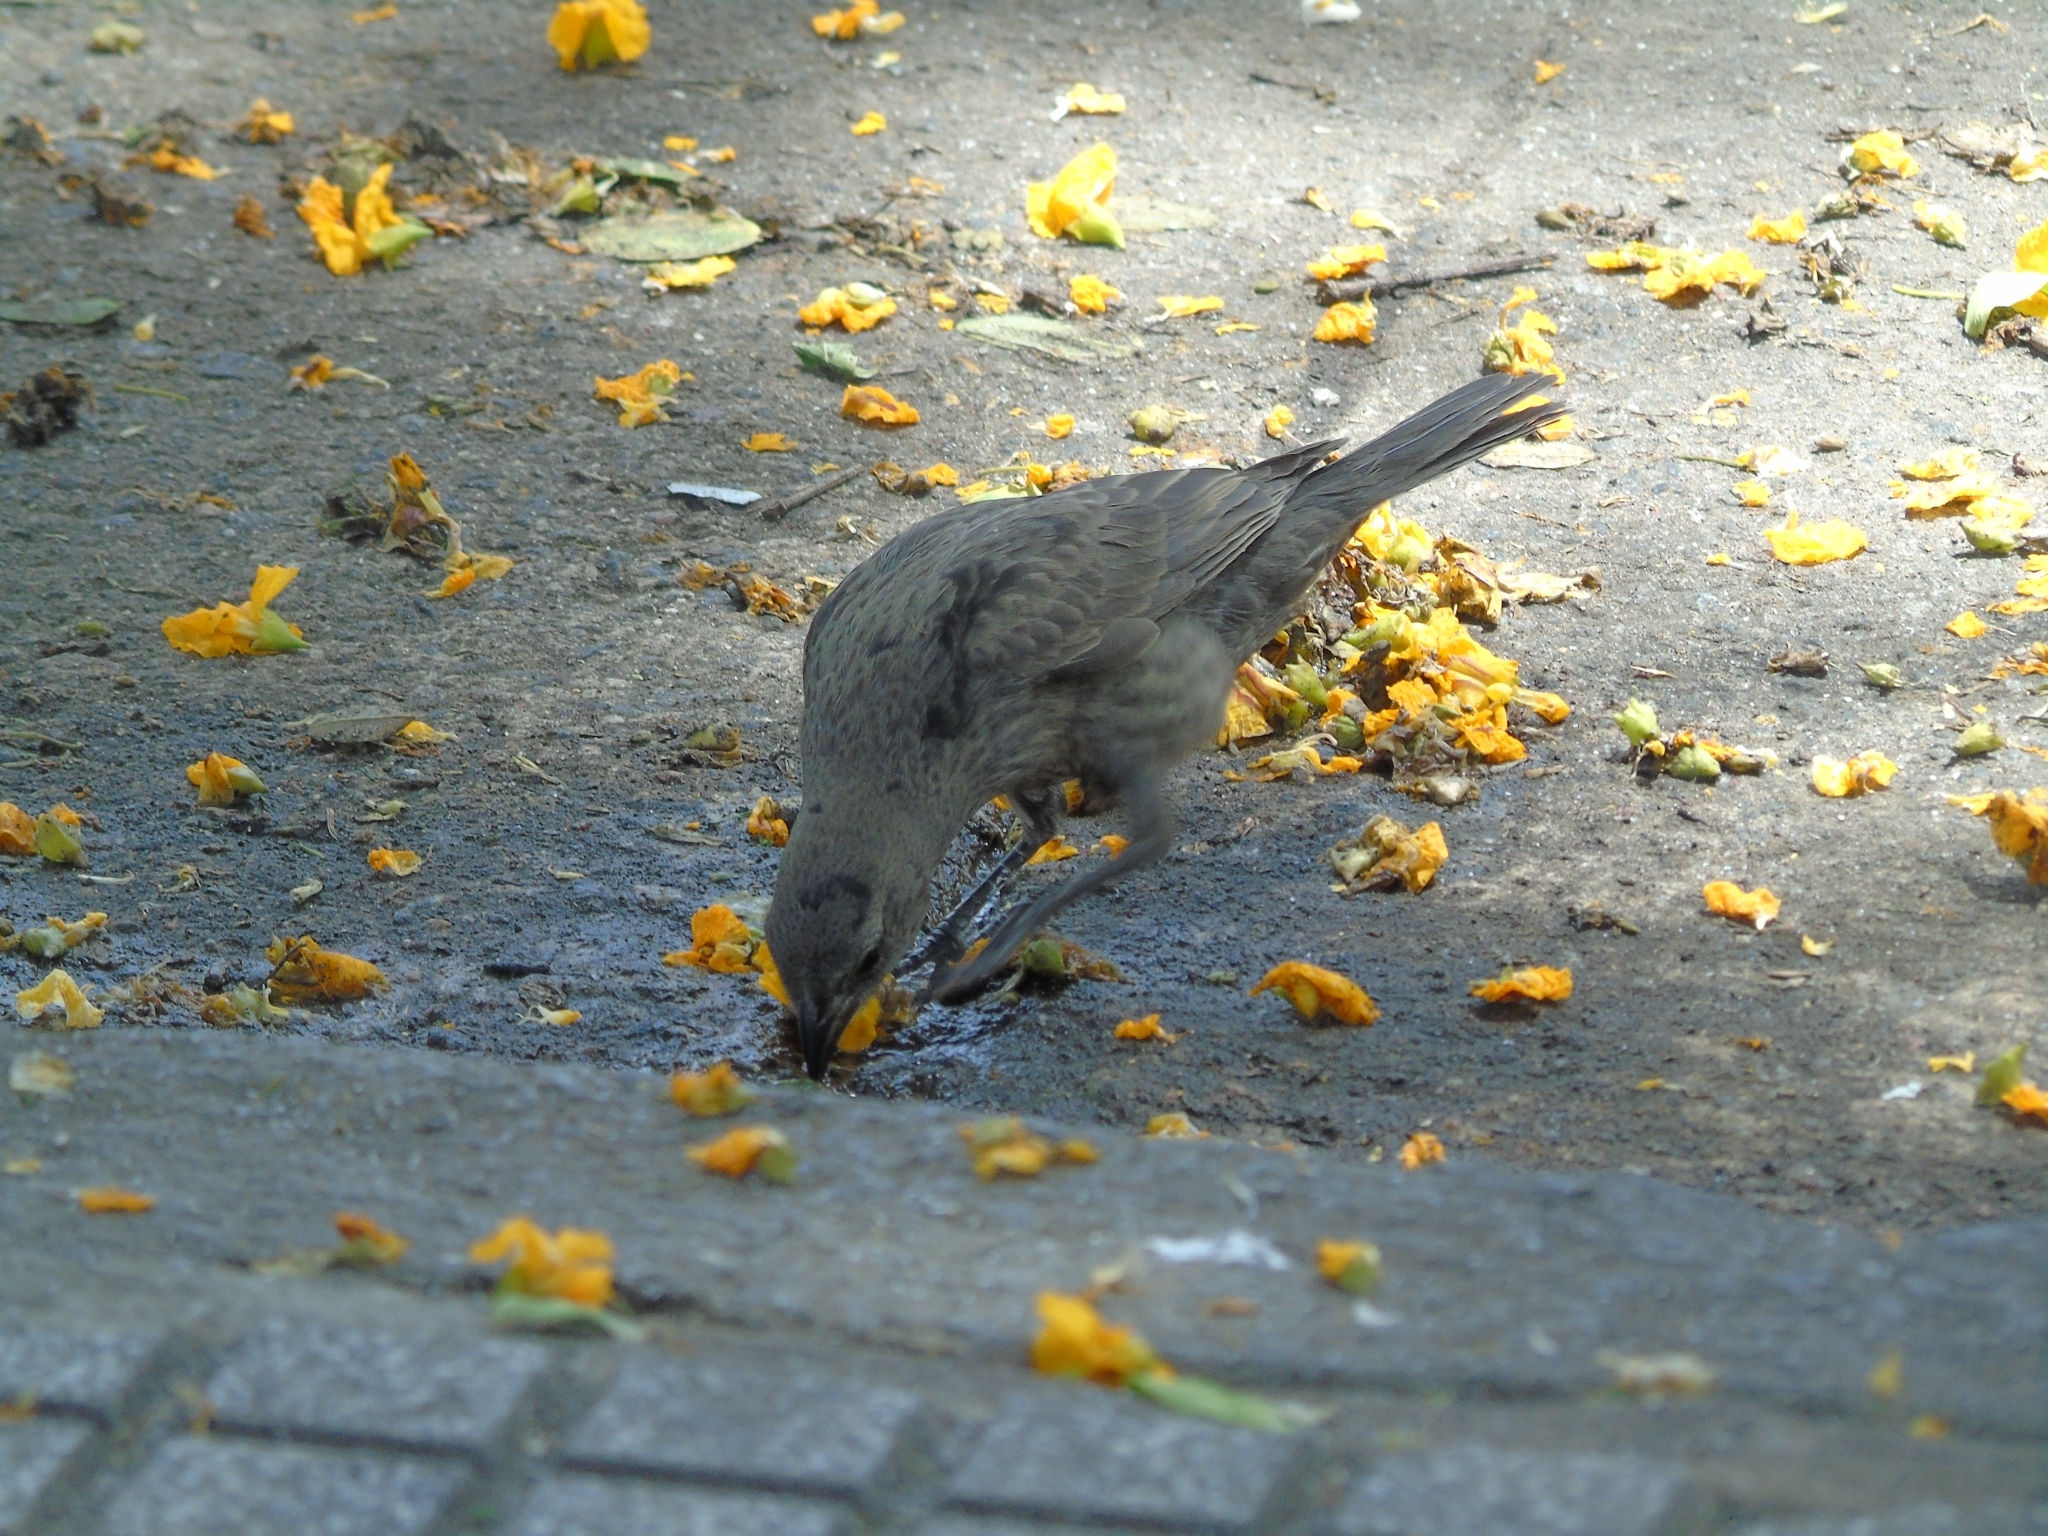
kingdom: Animalia
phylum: Chordata
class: Aves
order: Passeriformes
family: Icteridae
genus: Molothrus
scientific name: Molothrus bonariensis
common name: Shiny cowbird
